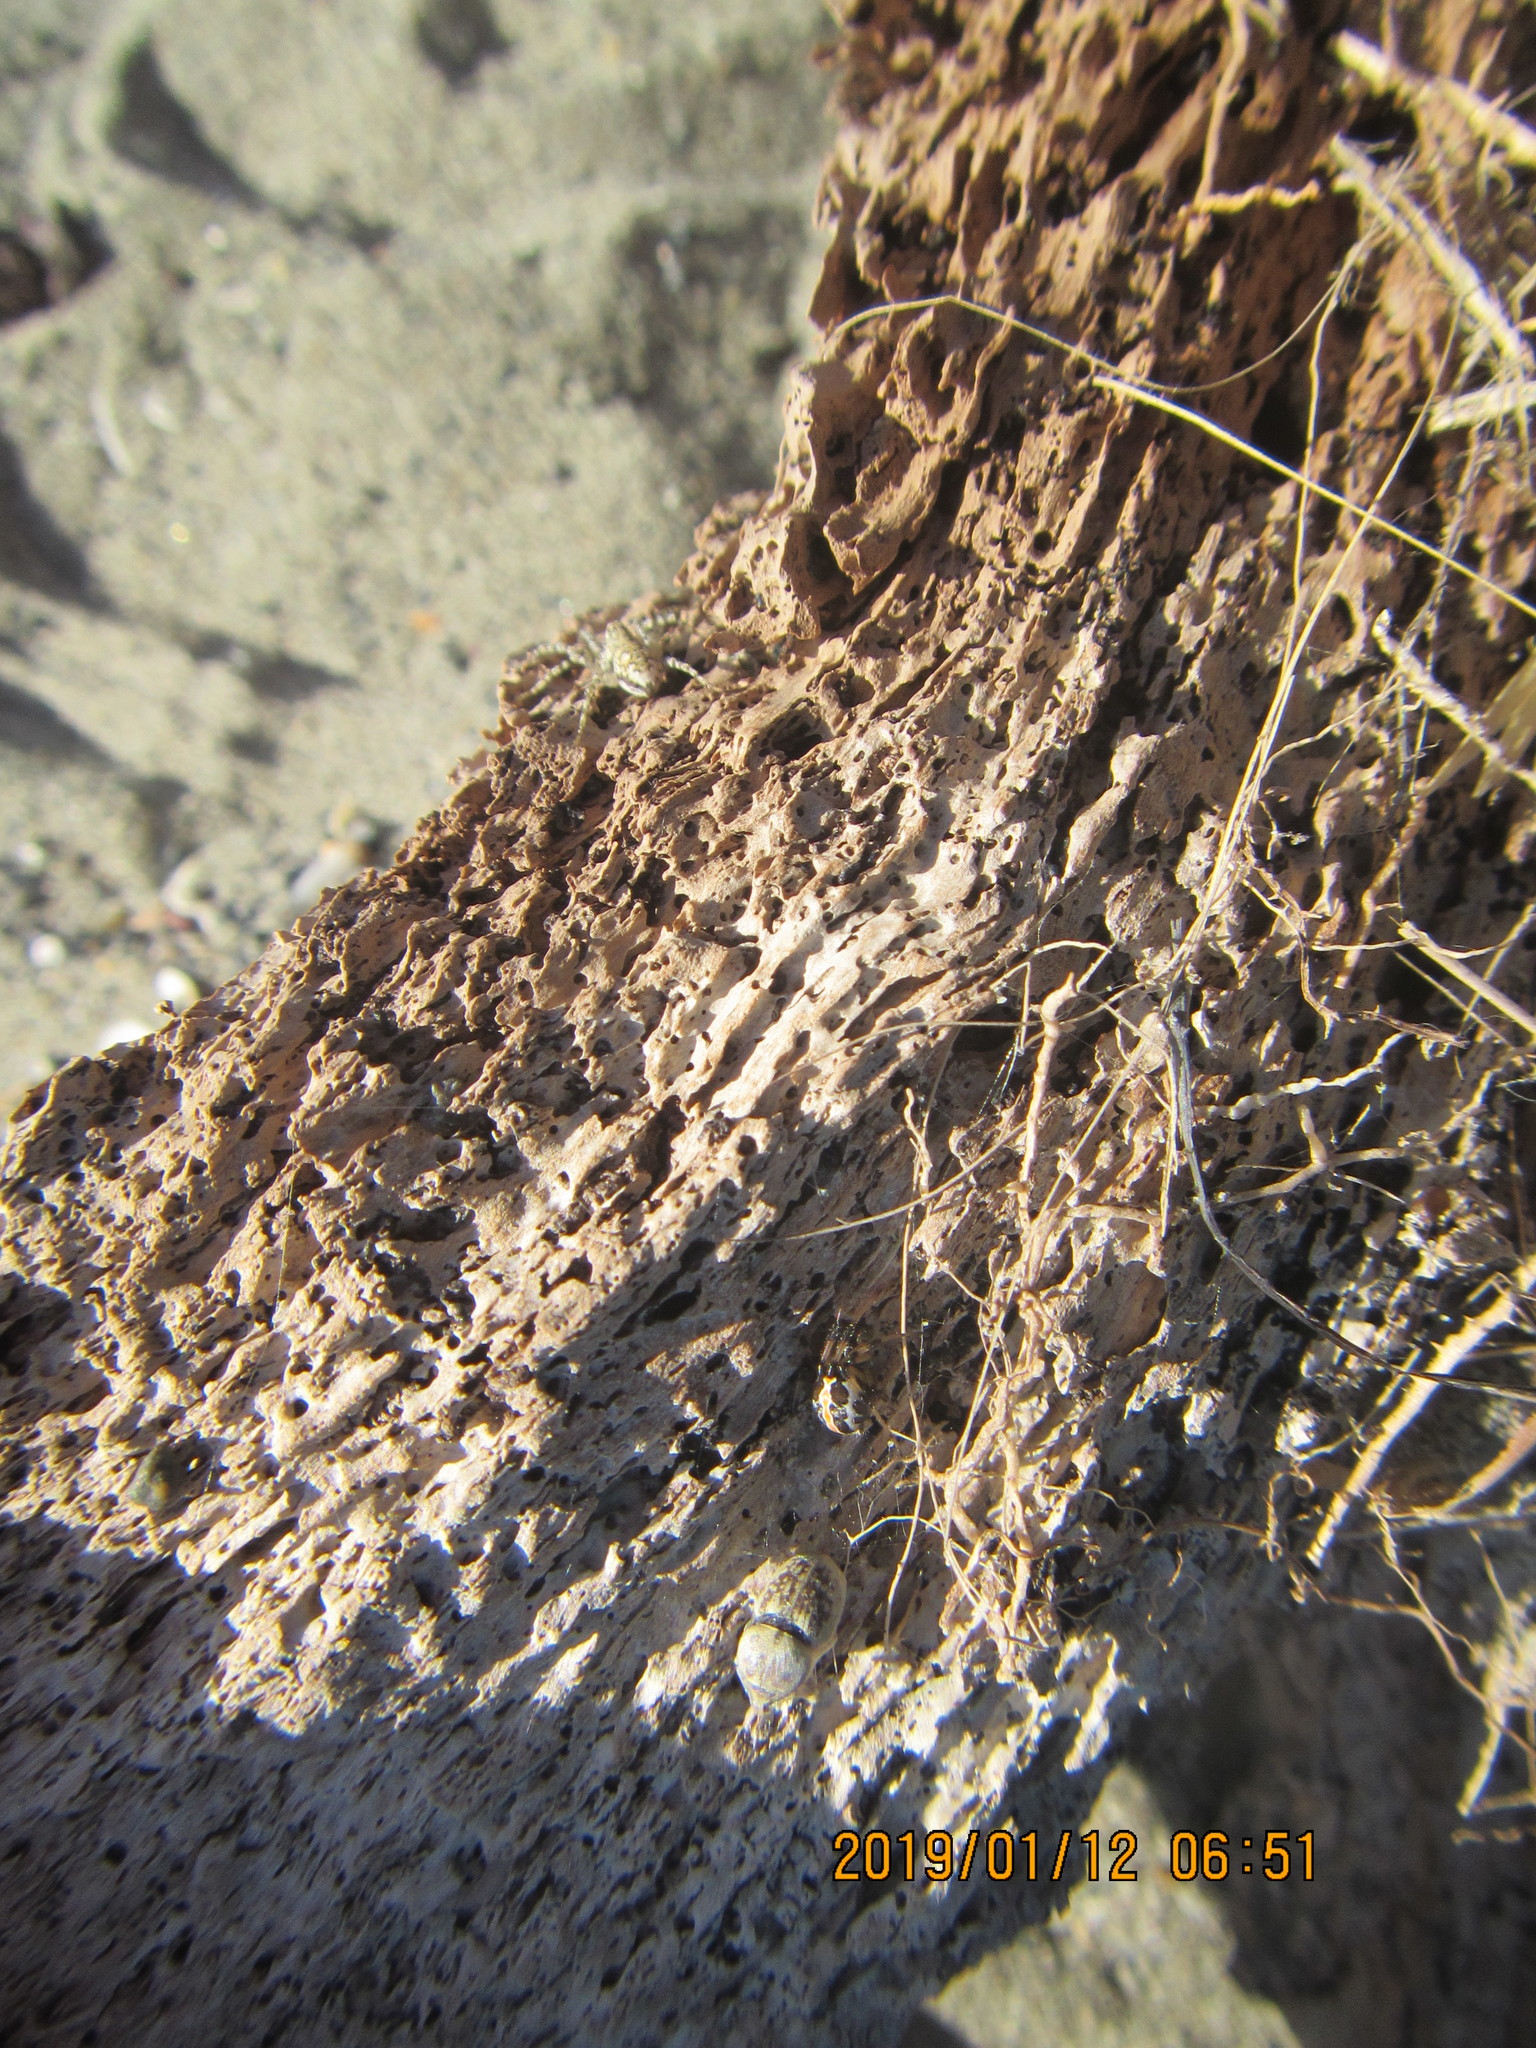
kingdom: Animalia
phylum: Arthropoda
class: Arachnida
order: Araneae
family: Lycosidae
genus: Anoteropsis
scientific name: Anoteropsis litoralis
